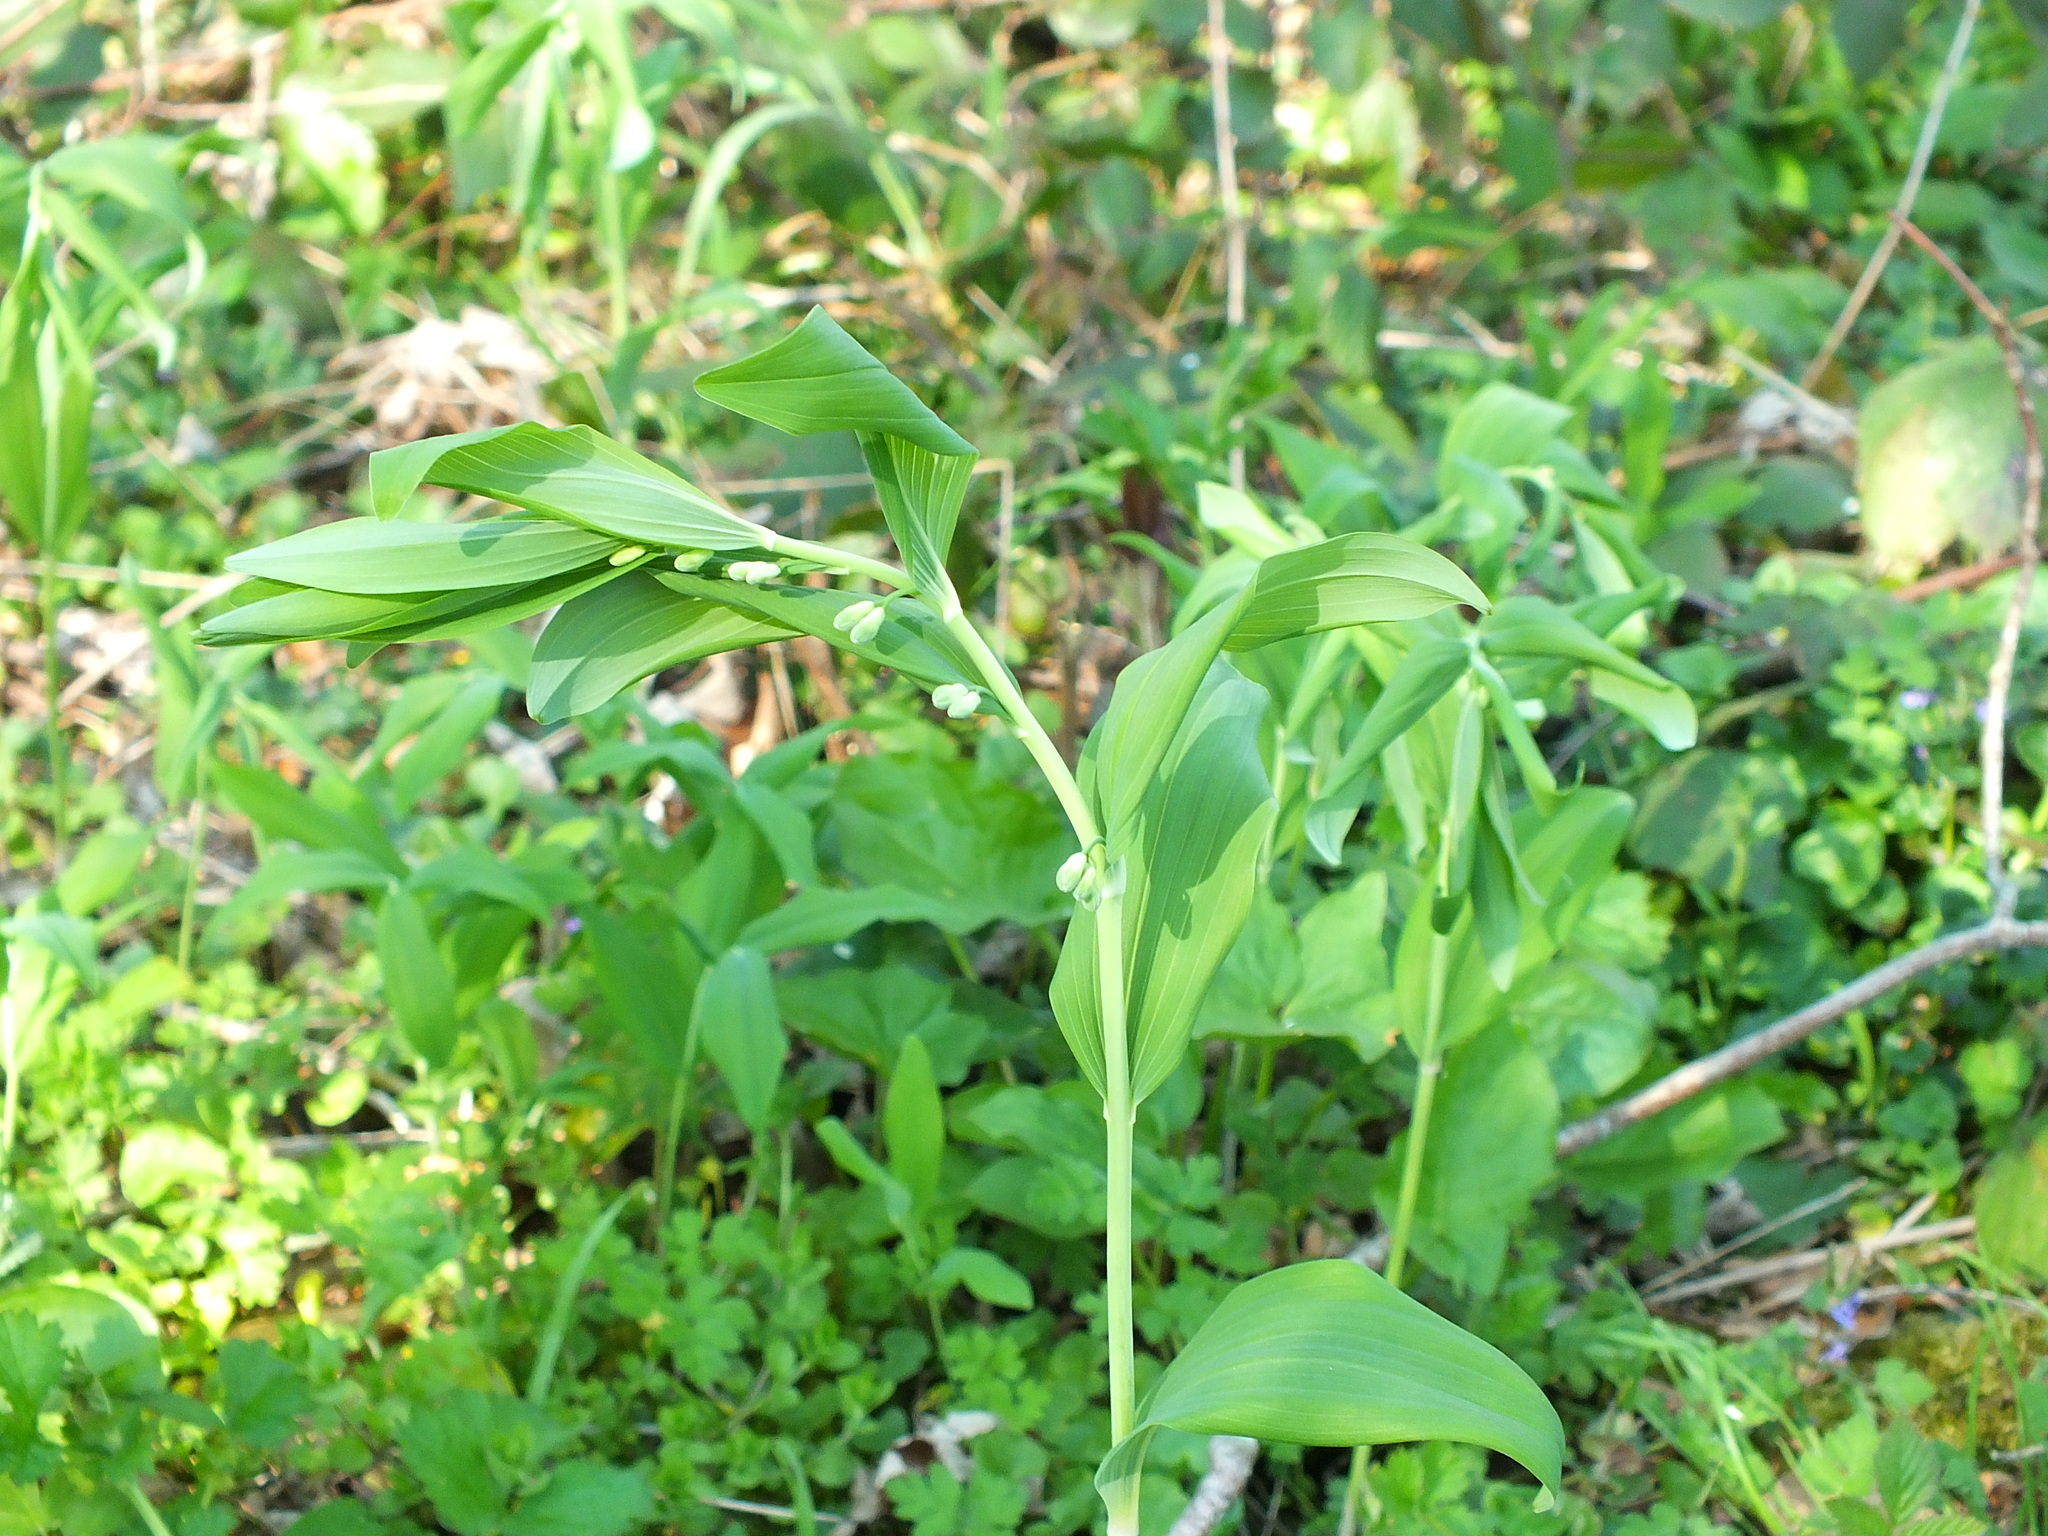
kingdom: Plantae
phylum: Tracheophyta
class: Liliopsida
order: Asparagales
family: Asparagaceae
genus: Polygonatum
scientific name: Polygonatum multiflorum
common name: Solomon's-seal
